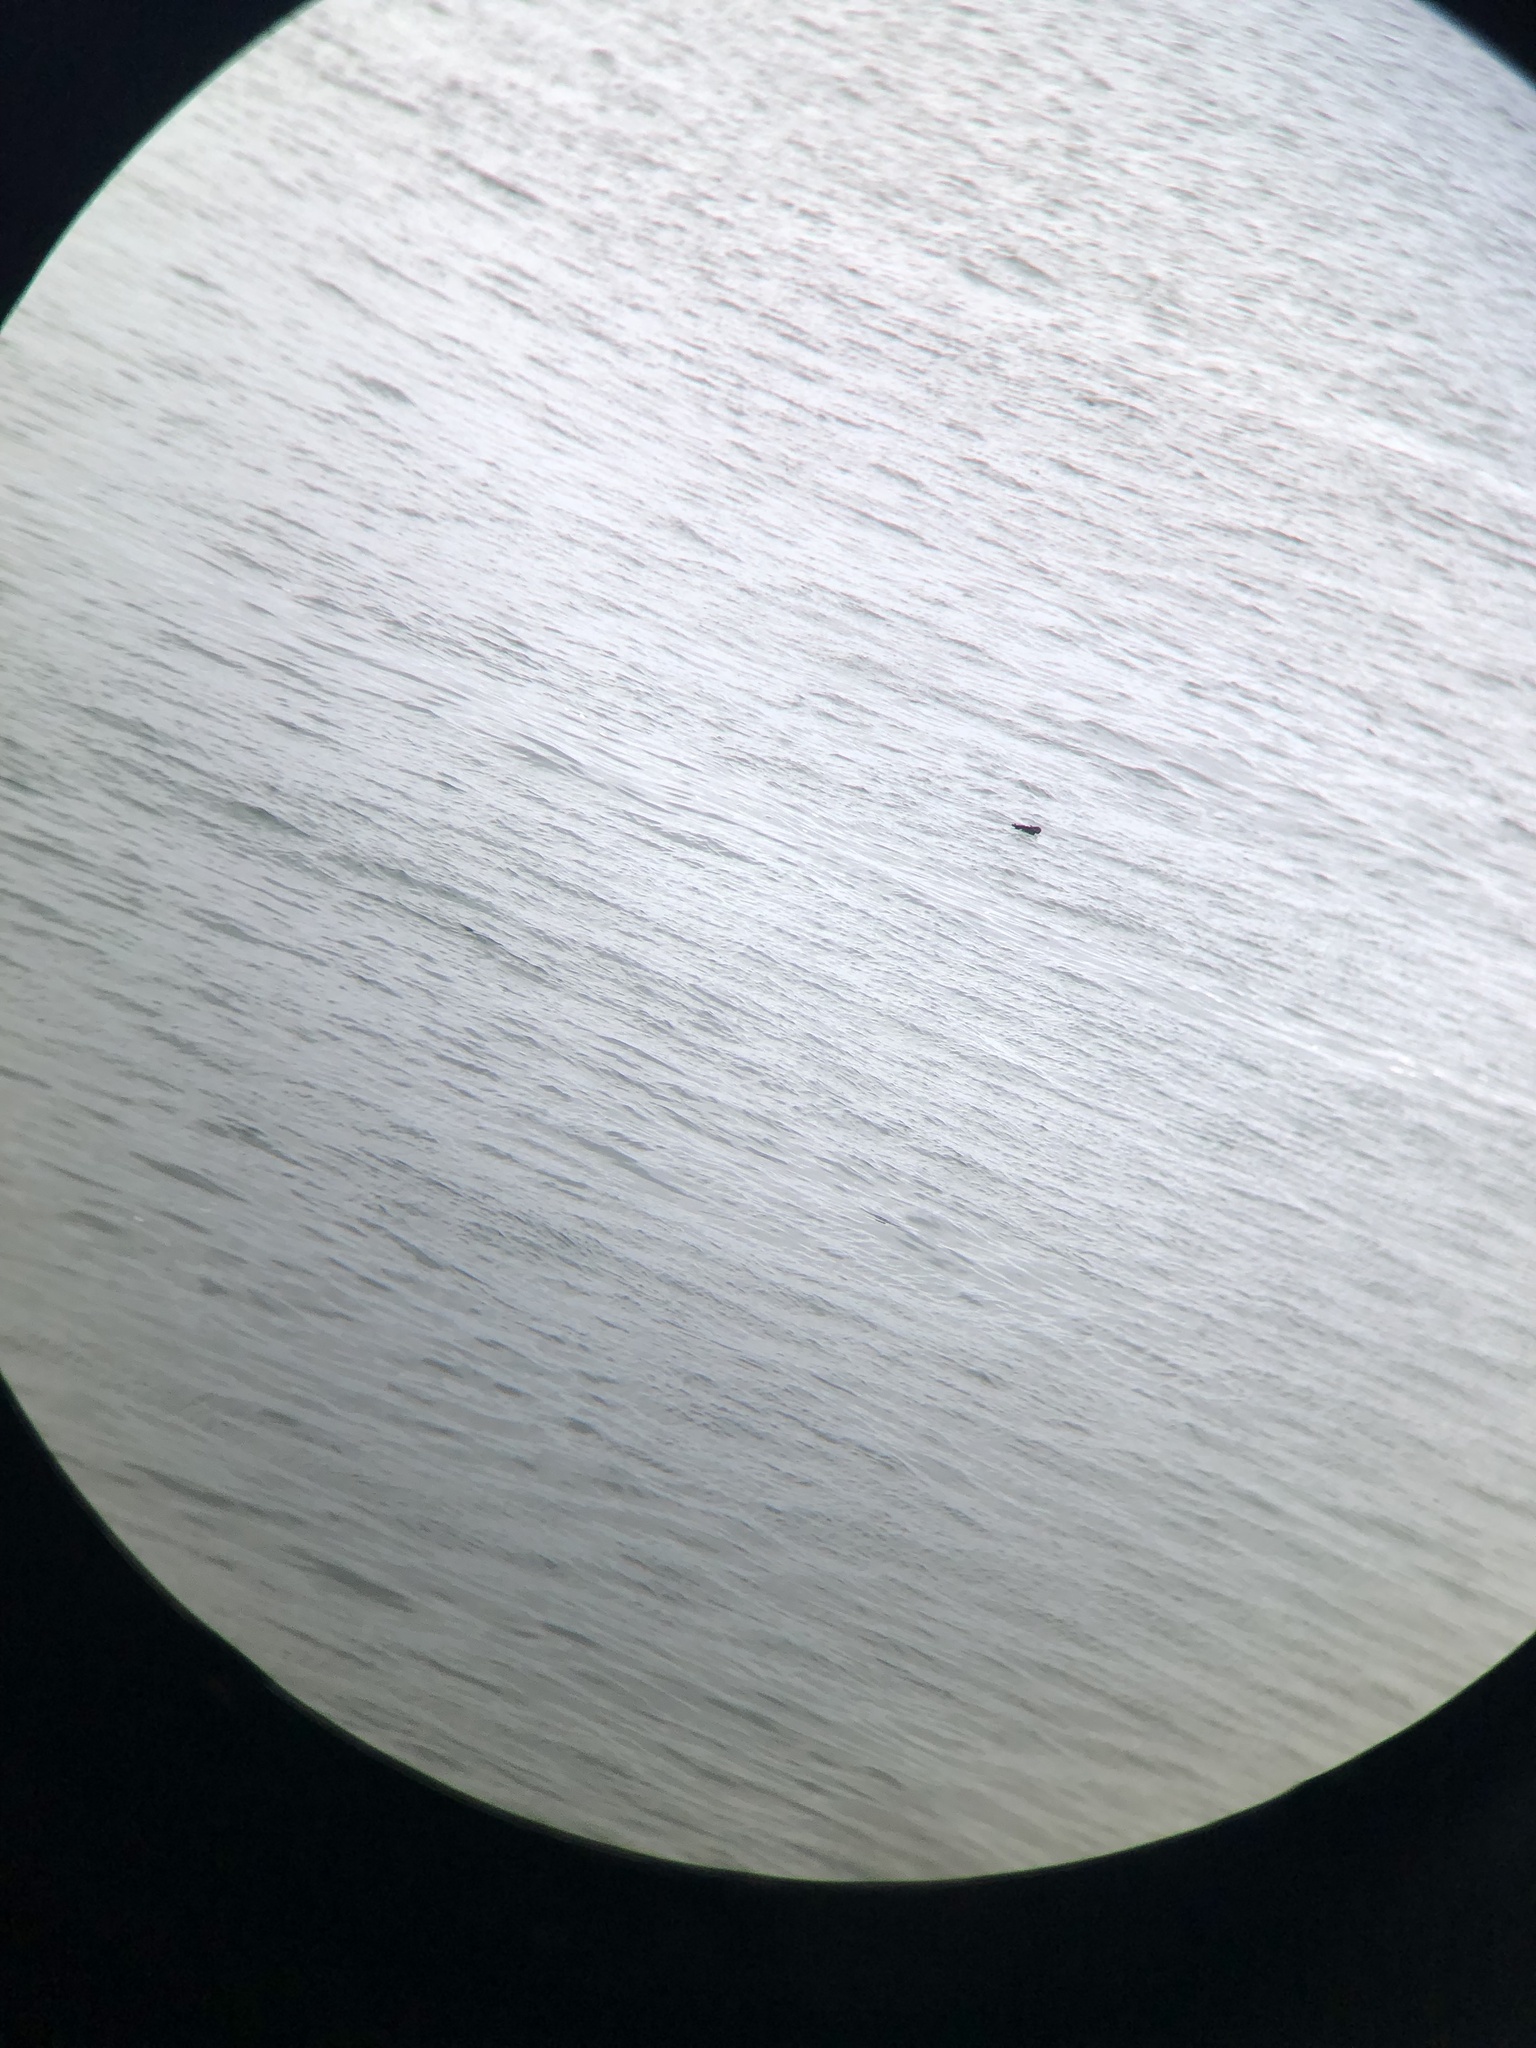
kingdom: Animalia
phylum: Chordata
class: Aves
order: Charadriiformes
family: Alcidae
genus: Cepphus
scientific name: Cepphus columba
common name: Pigeon guillemot
